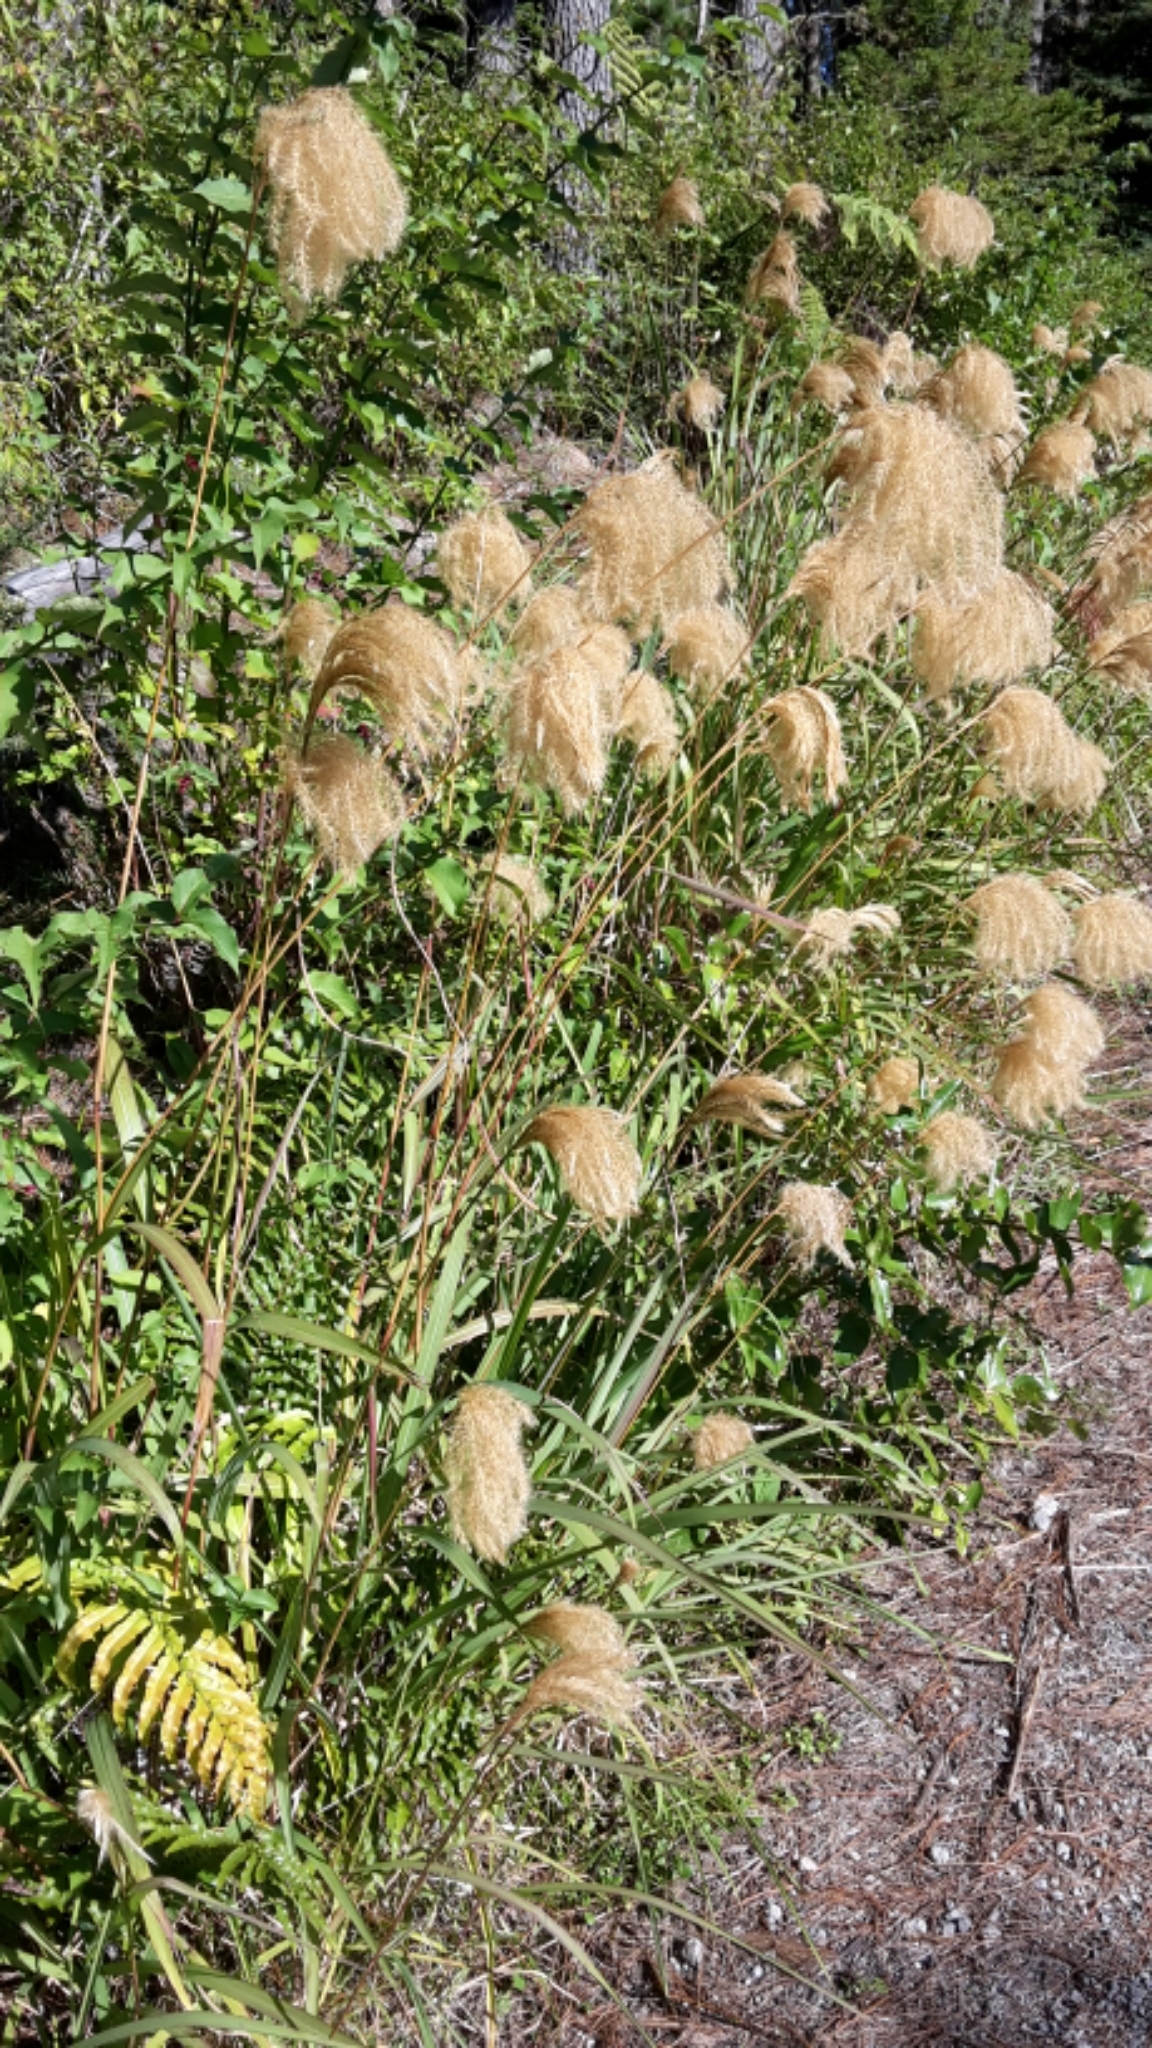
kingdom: Plantae
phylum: Tracheophyta
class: Liliopsida
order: Poales
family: Poaceae
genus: Miscanthus
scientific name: Miscanthus nepalensis
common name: Nepal silver grass
